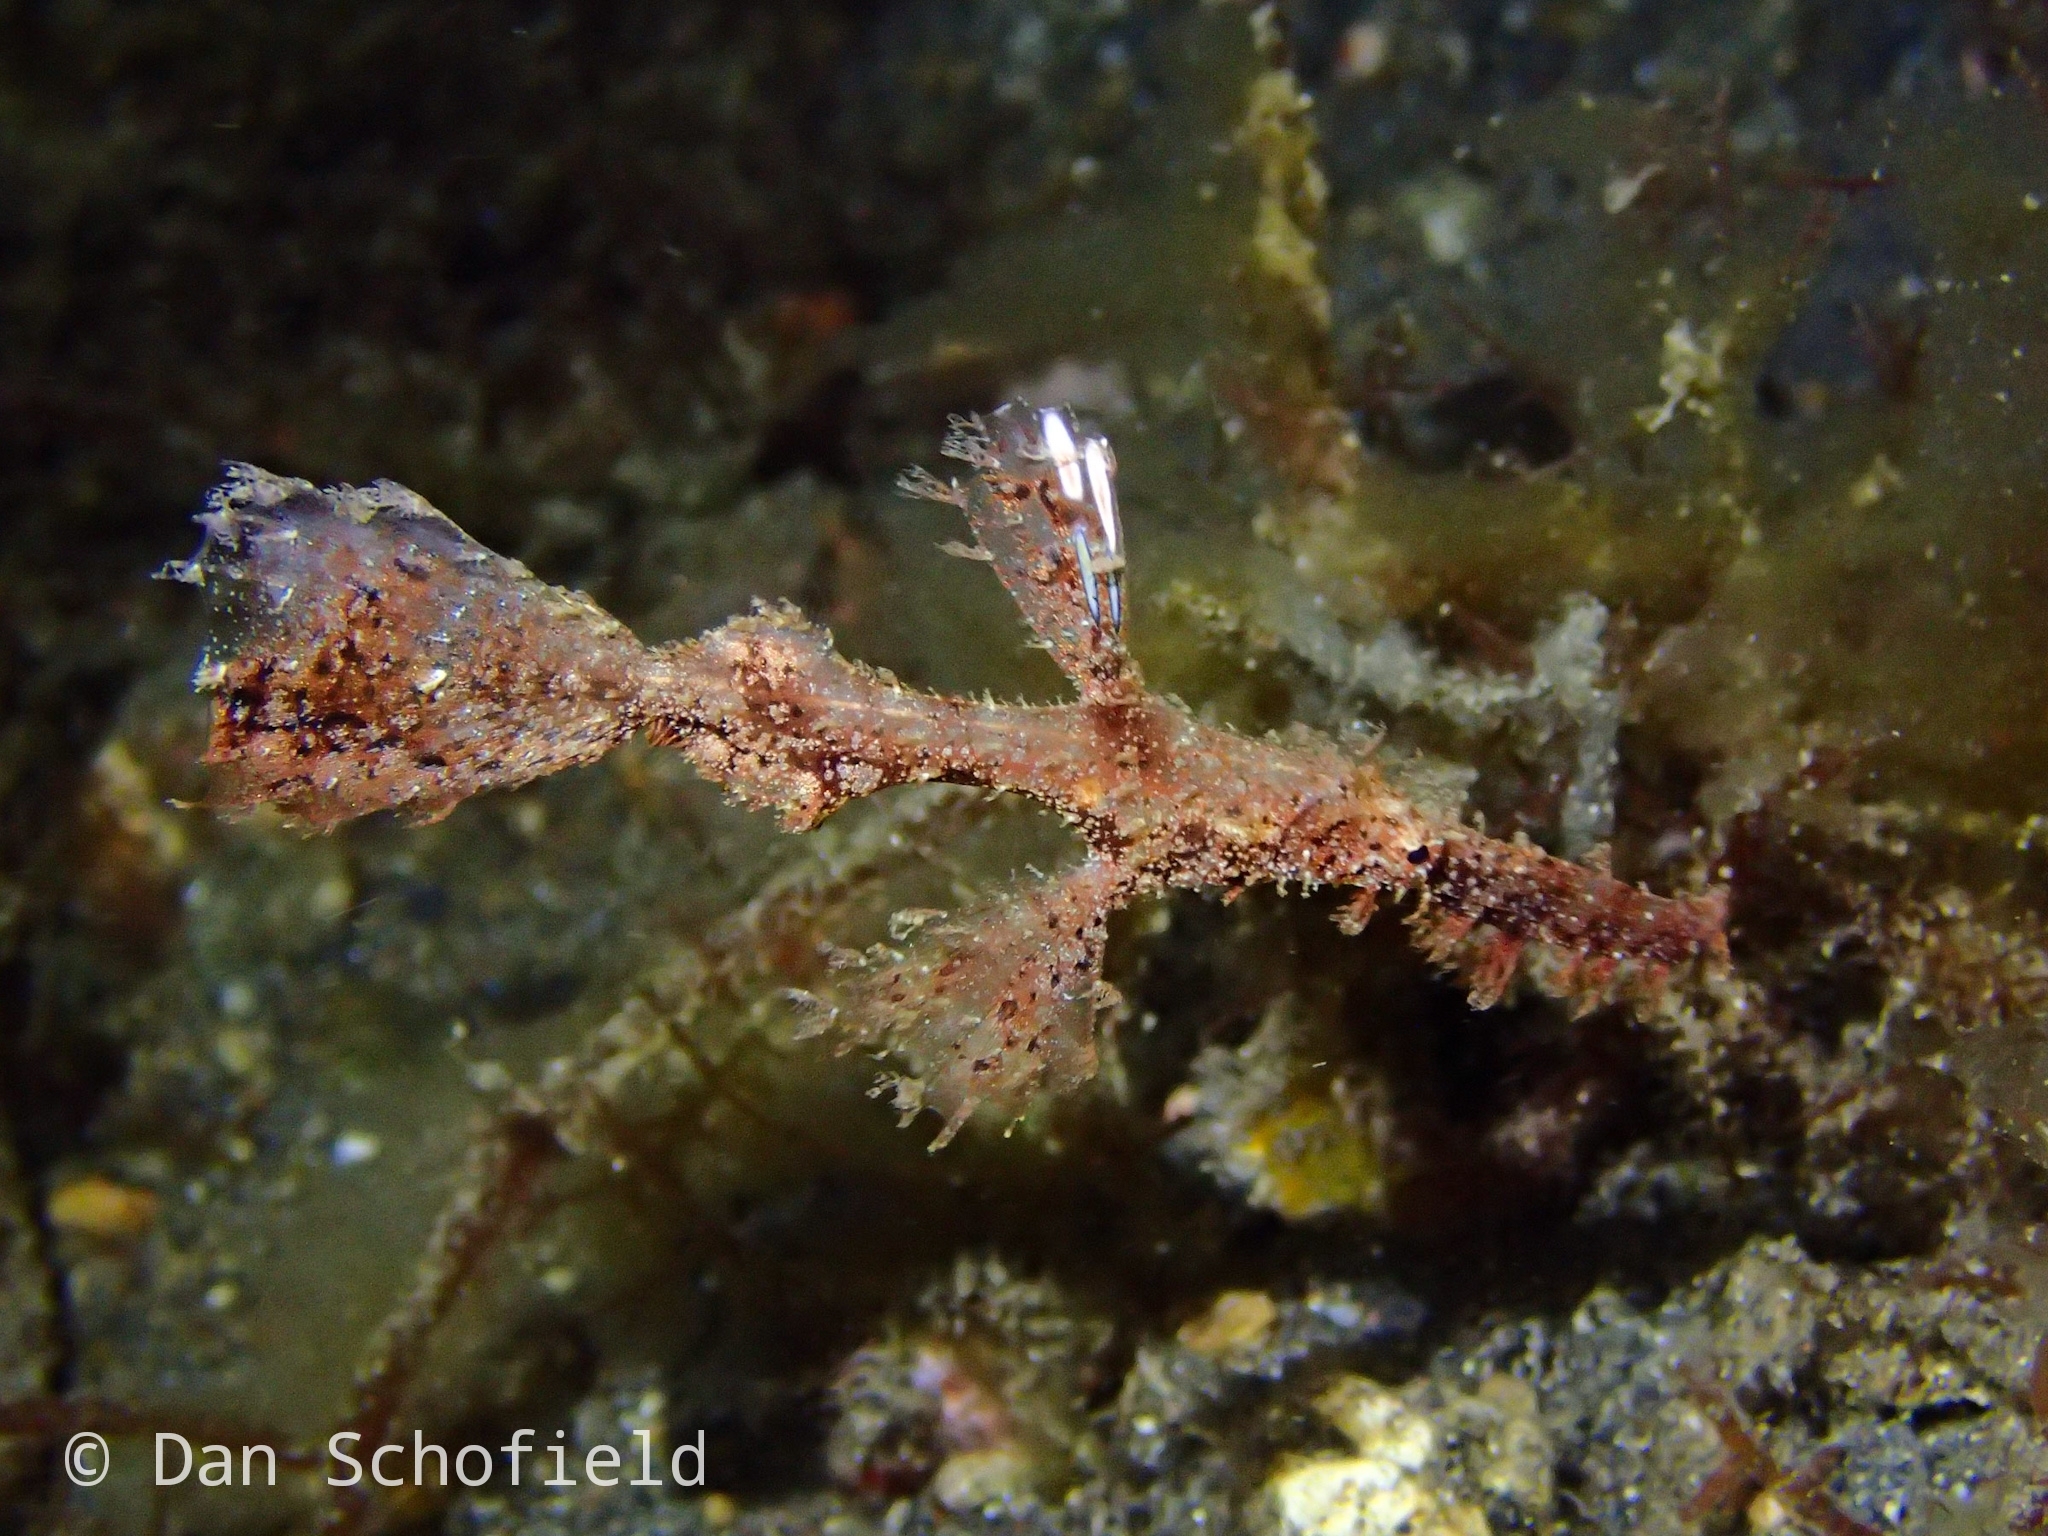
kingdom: Animalia
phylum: Chordata
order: Syngnathiformes
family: Solenostomidae
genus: Solenostomus
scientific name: Solenostomus paegnius
